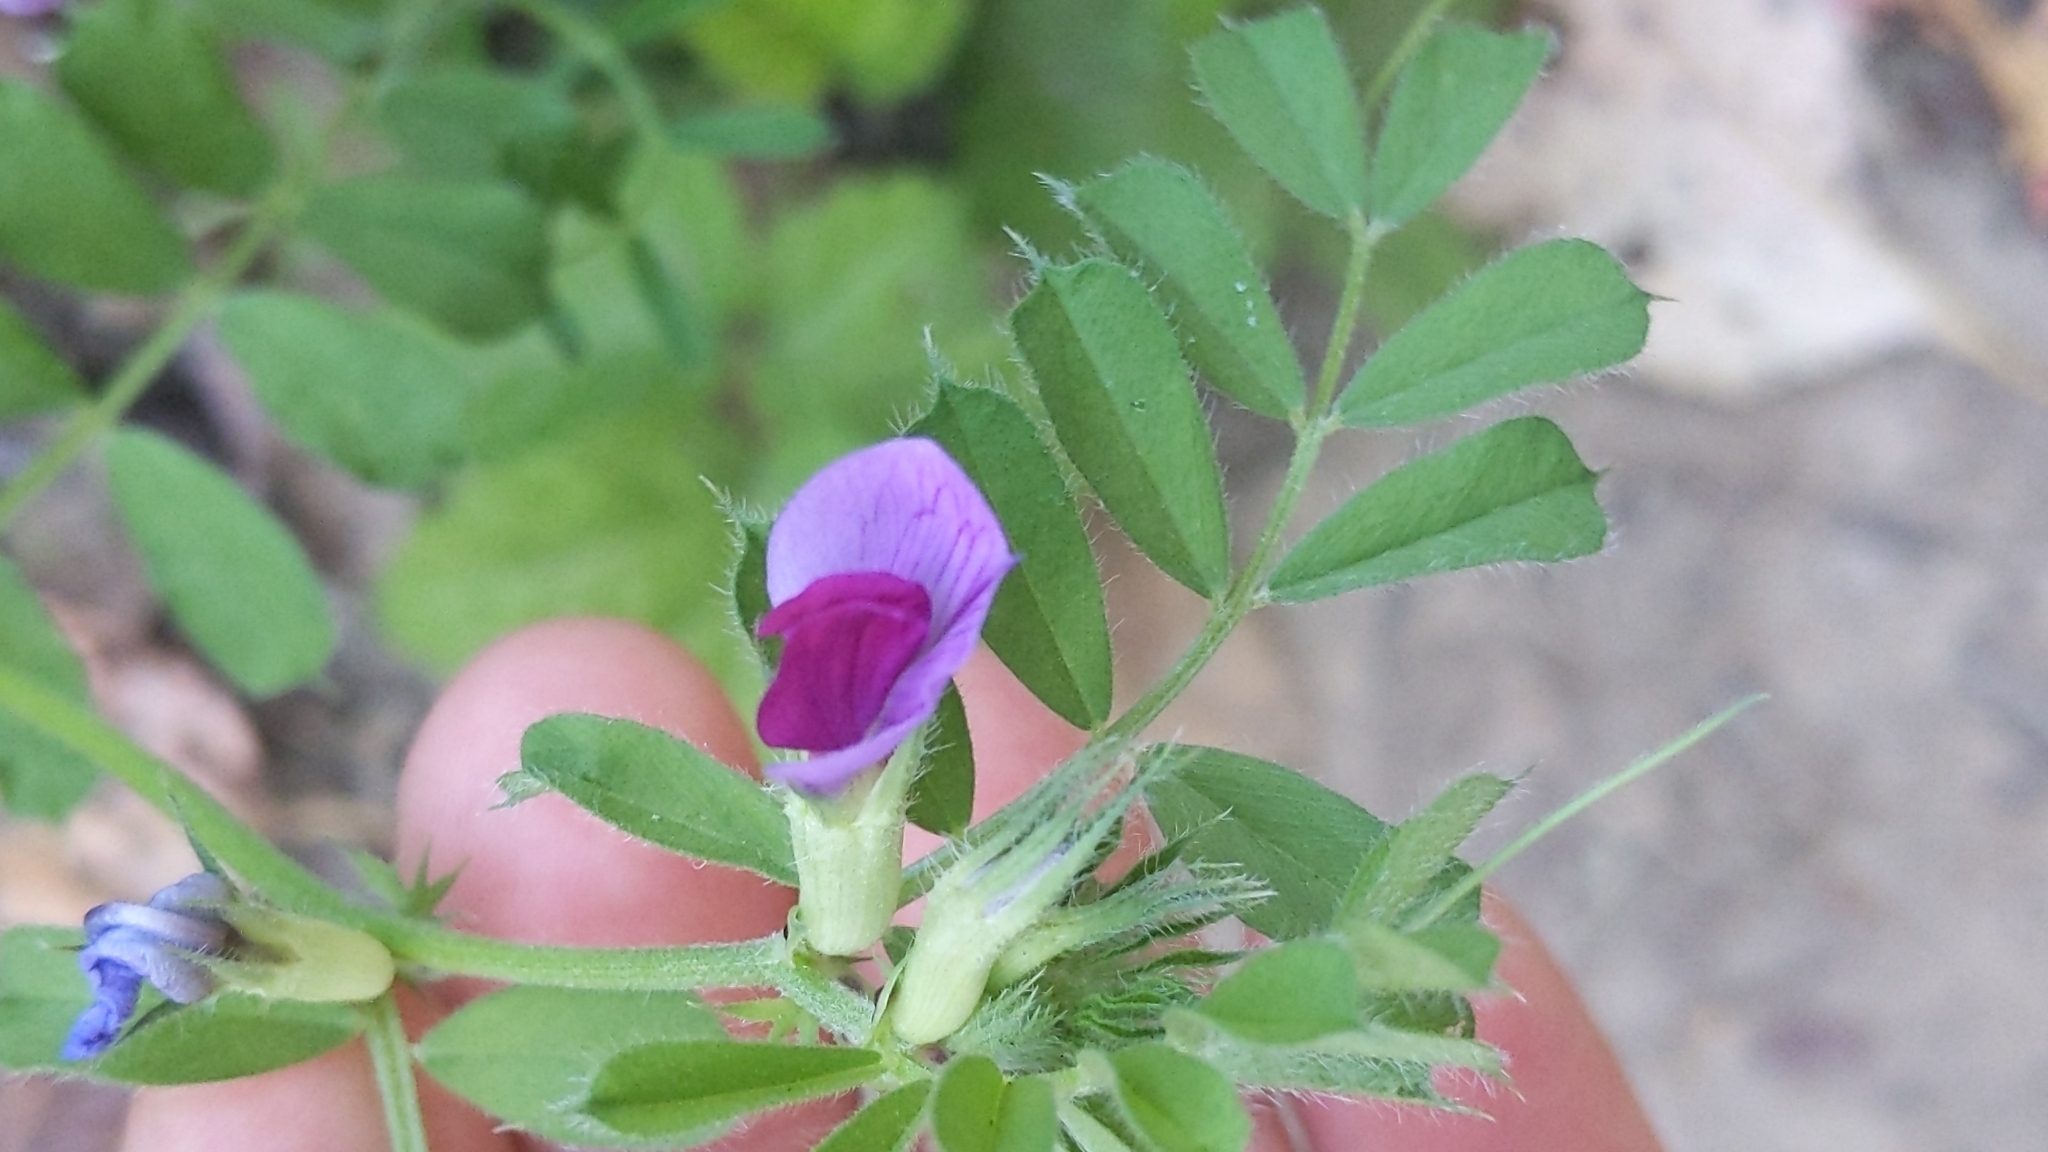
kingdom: Plantae
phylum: Tracheophyta
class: Magnoliopsida
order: Fabales
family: Fabaceae
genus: Vicia
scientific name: Vicia sativa
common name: Garden vetch
